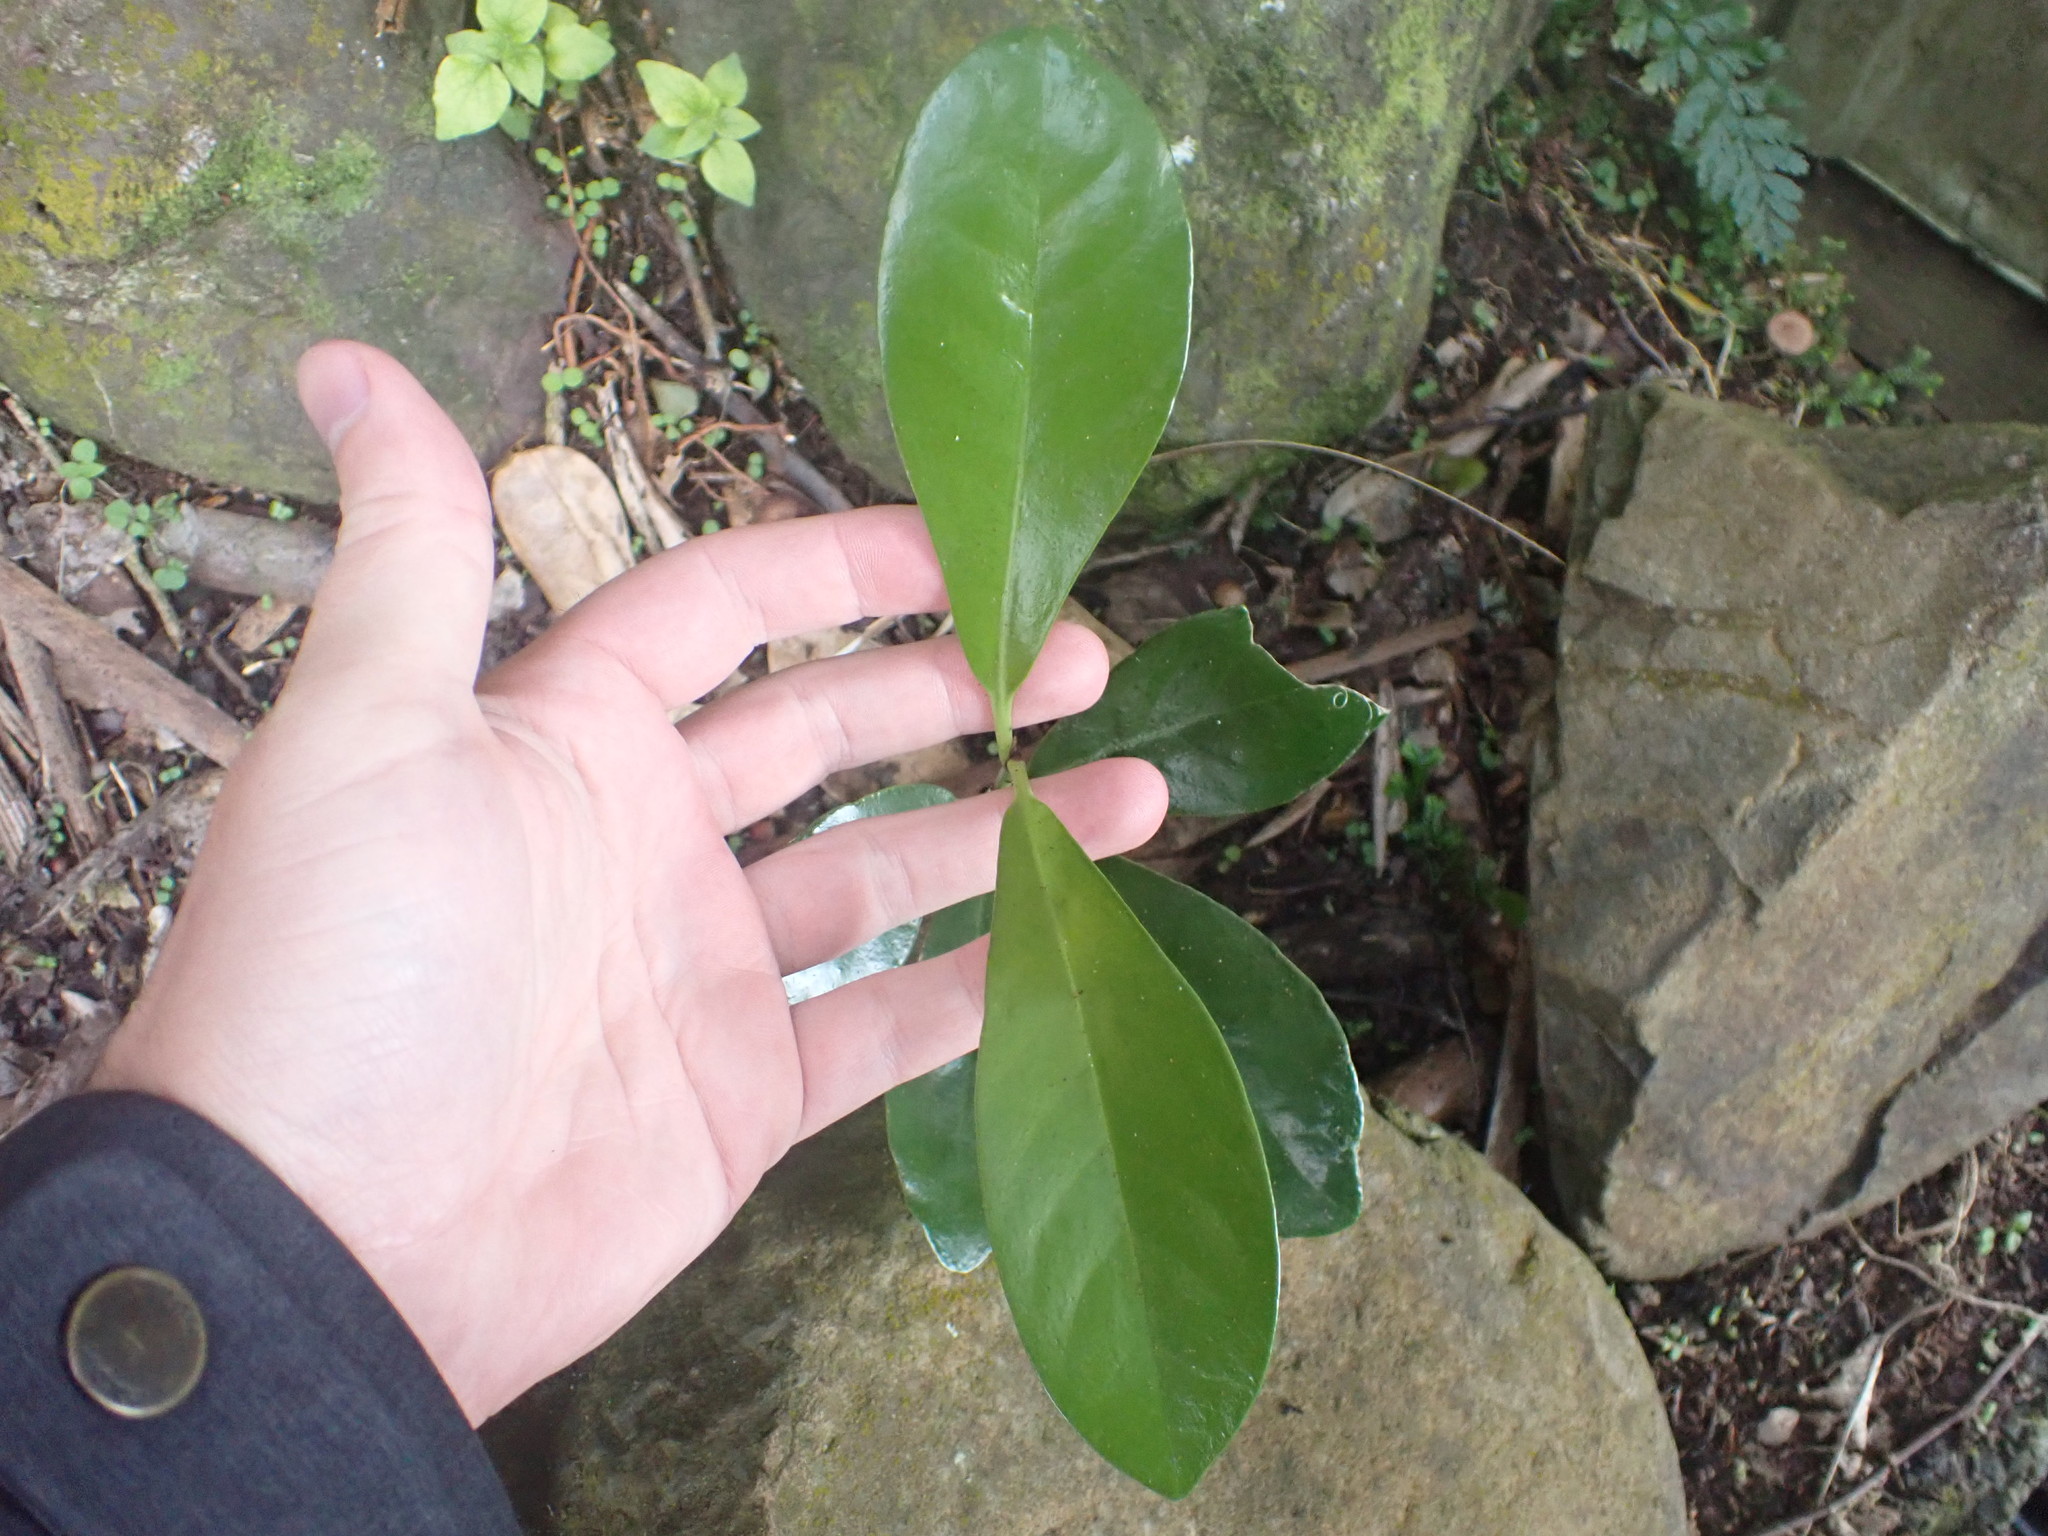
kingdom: Plantae
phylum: Tracheophyta
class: Magnoliopsida
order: Cucurbitales
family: Corynocarpaceae
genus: Corynocarpus
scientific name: Corynocarpus laevigatus
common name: New zealand laurel
